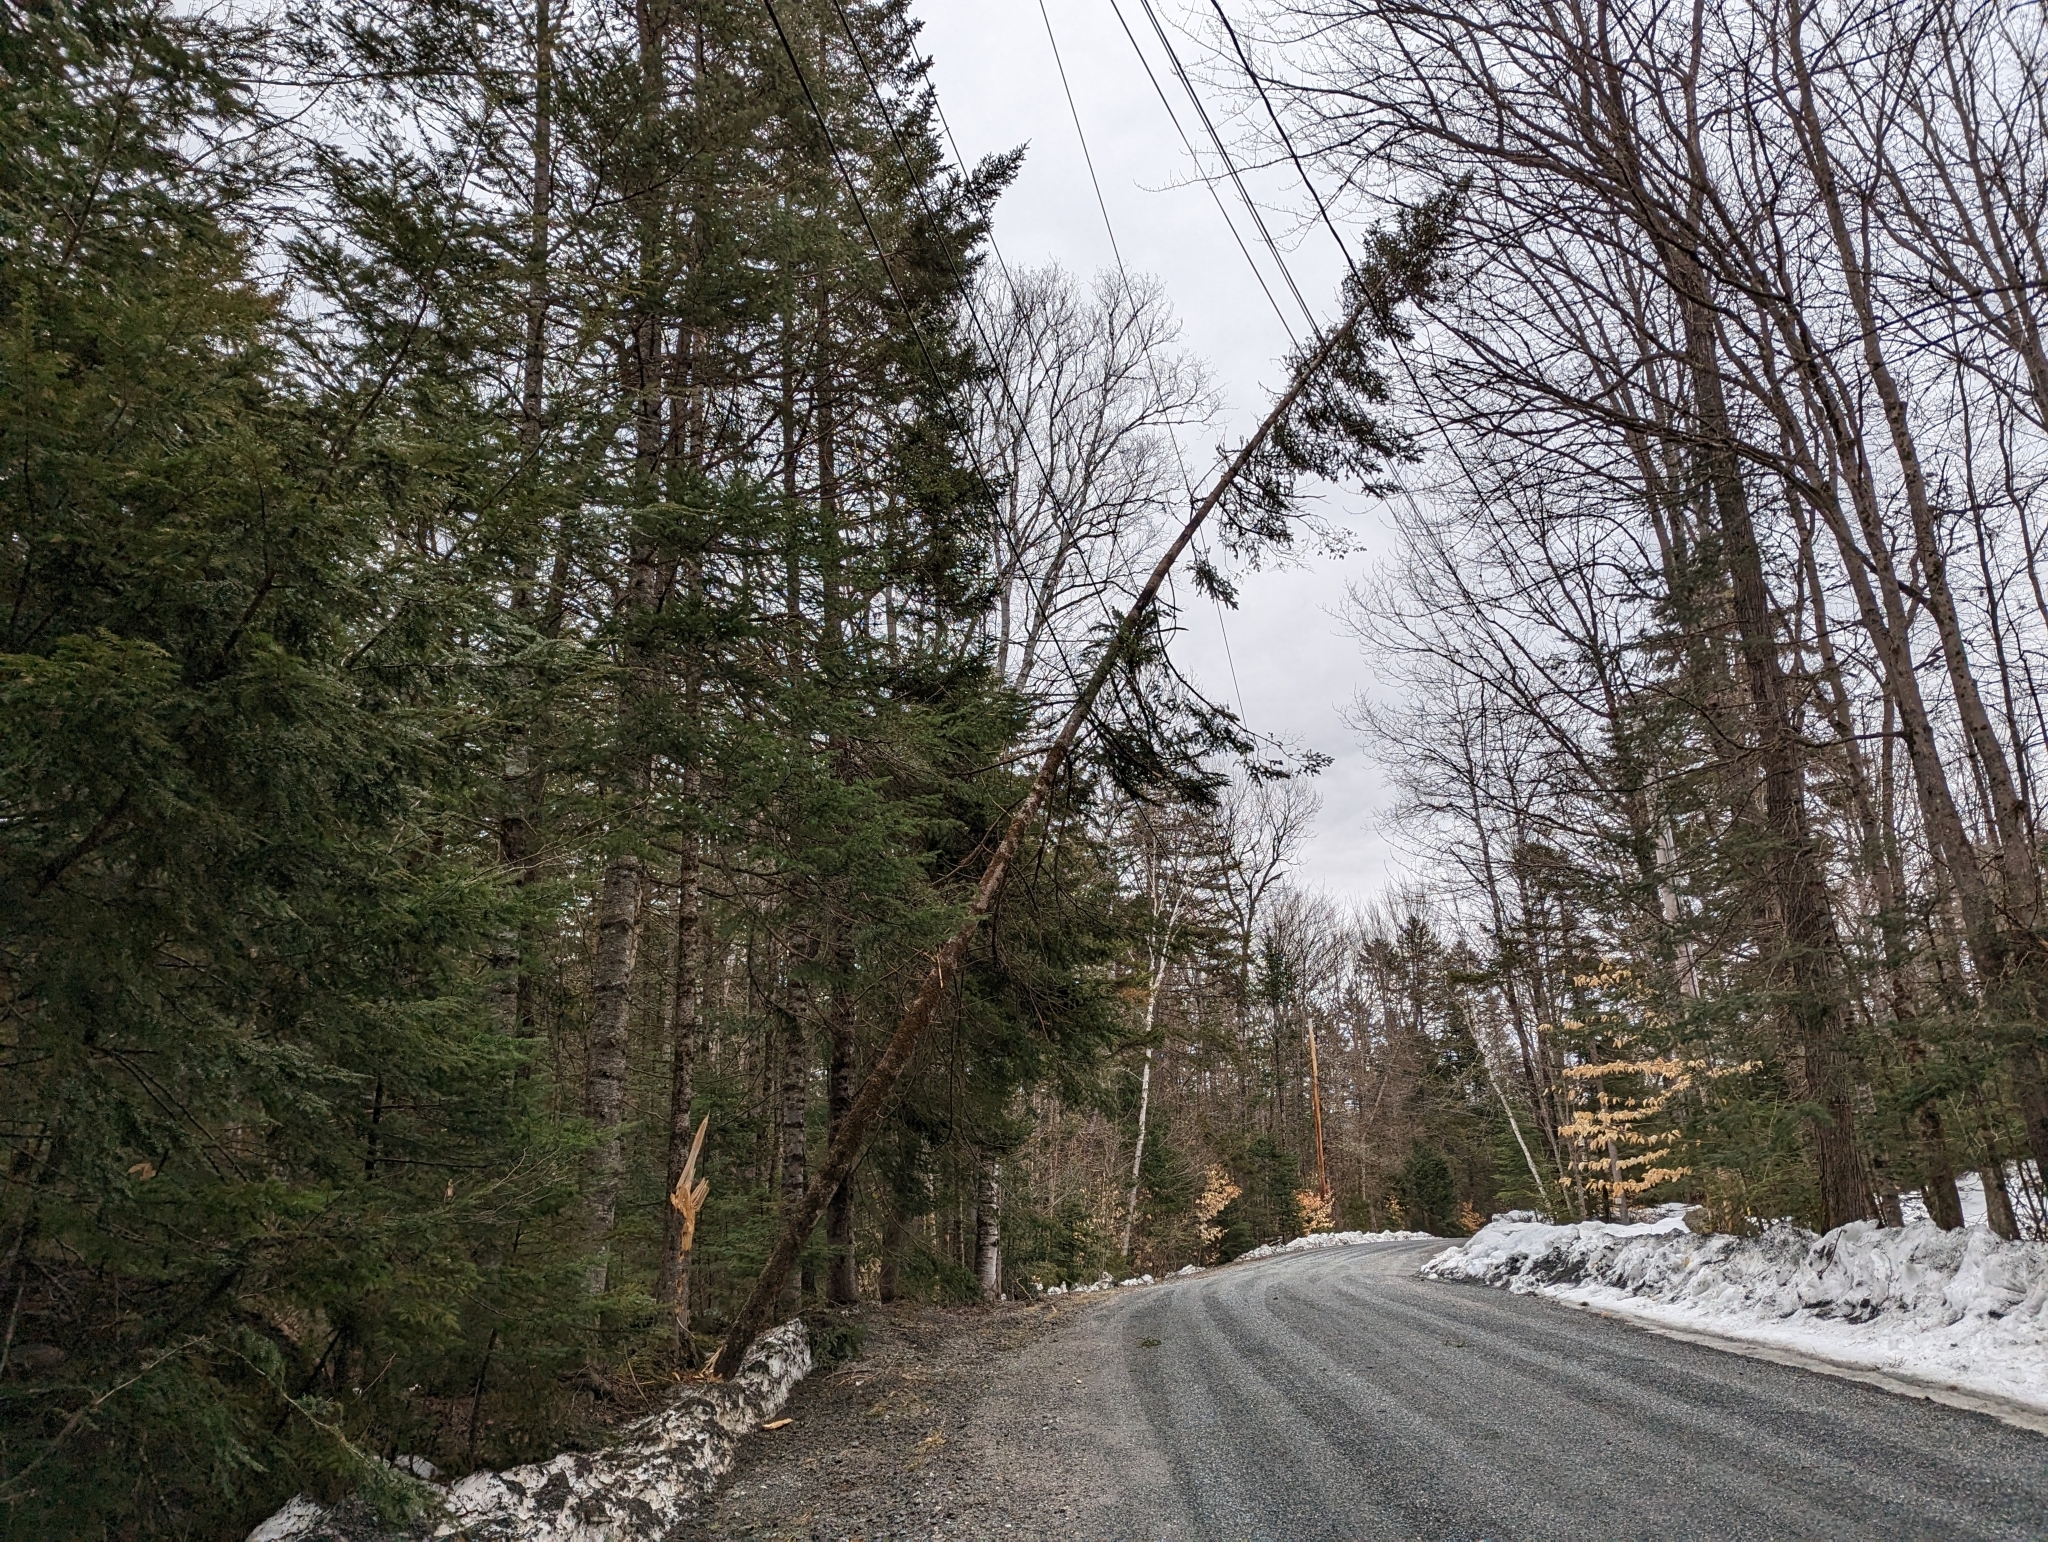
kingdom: Plantae
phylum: Tracheophyta
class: Pinopsida
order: Pinales
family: Pinaceae
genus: Abies
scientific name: Abies balsamea
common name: Balsam fir
